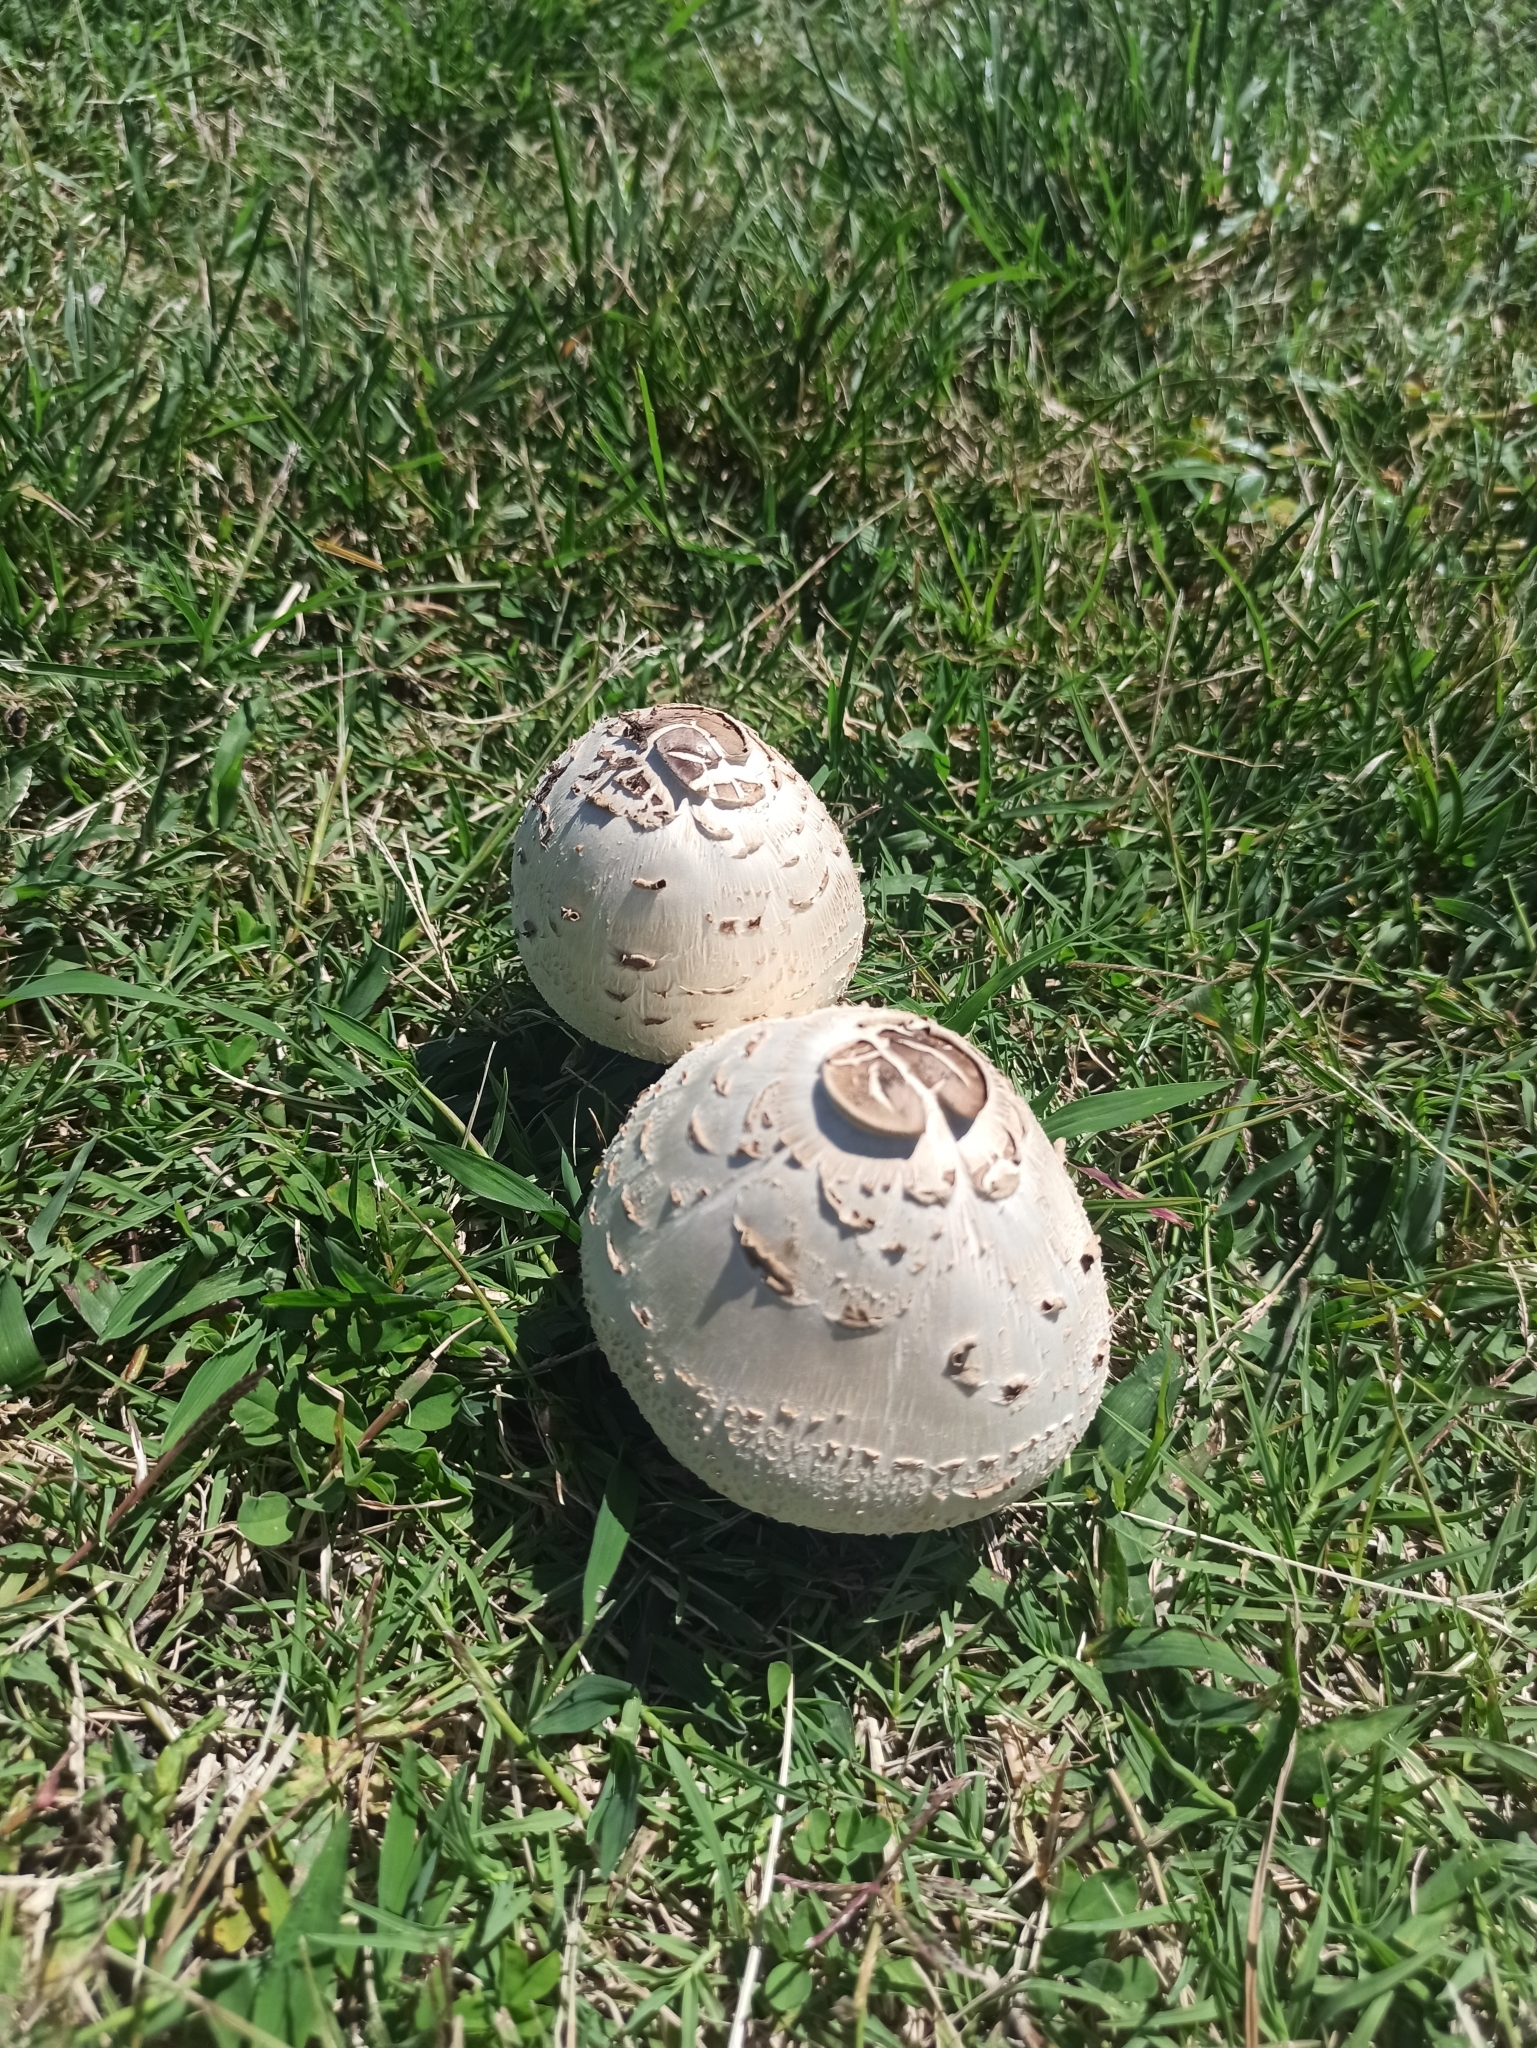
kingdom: Fungi
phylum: Basidiomycota
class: Agaricomycetes
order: Agaricales
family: Agaricaceae
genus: Chlorophyllum
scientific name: Chlorophyllum molybdites
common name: False parasol
